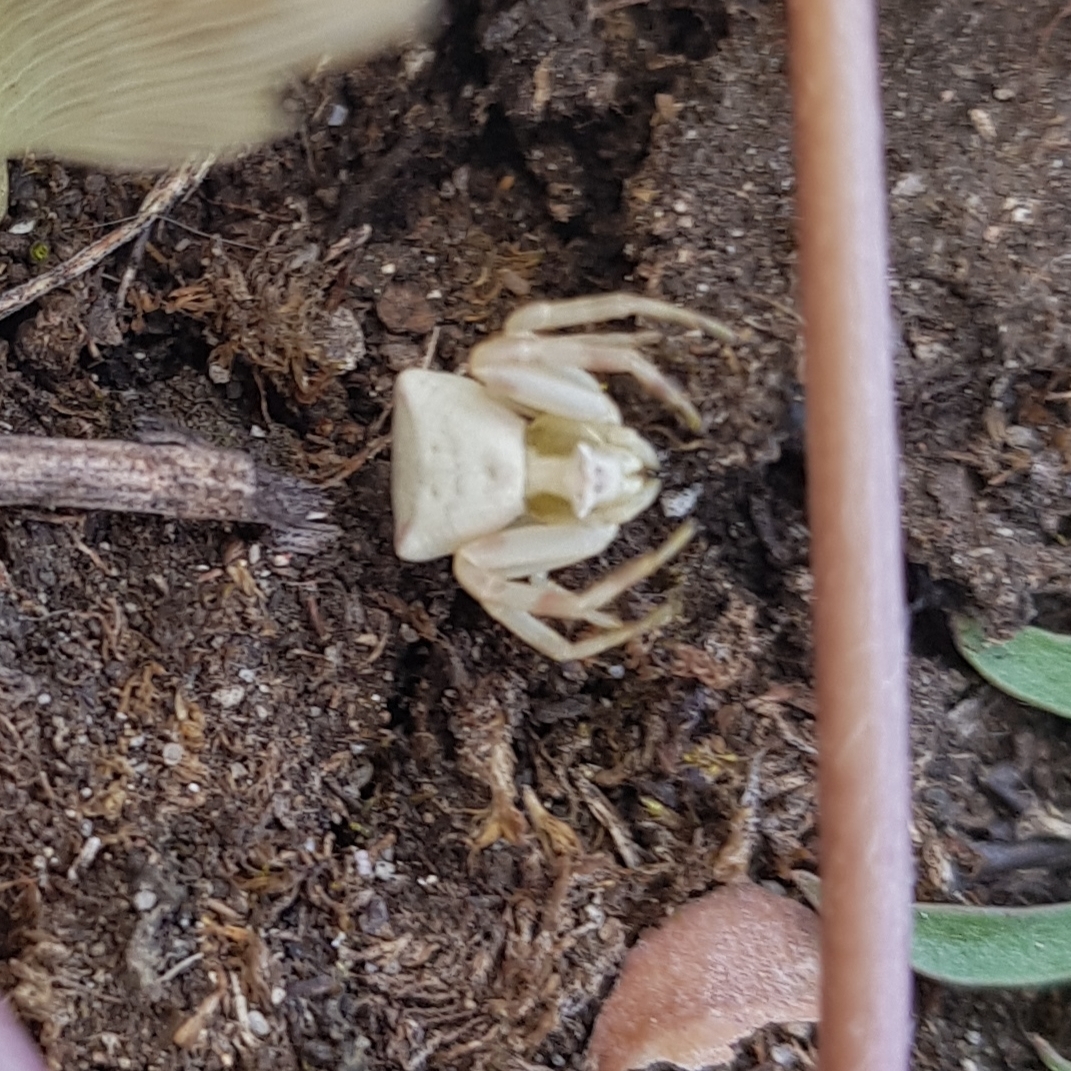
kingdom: Animalia
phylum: Arthropoda
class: Arachnida
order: Araneae
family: Thomisidae
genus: Thomisus
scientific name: Thomisus onustus
